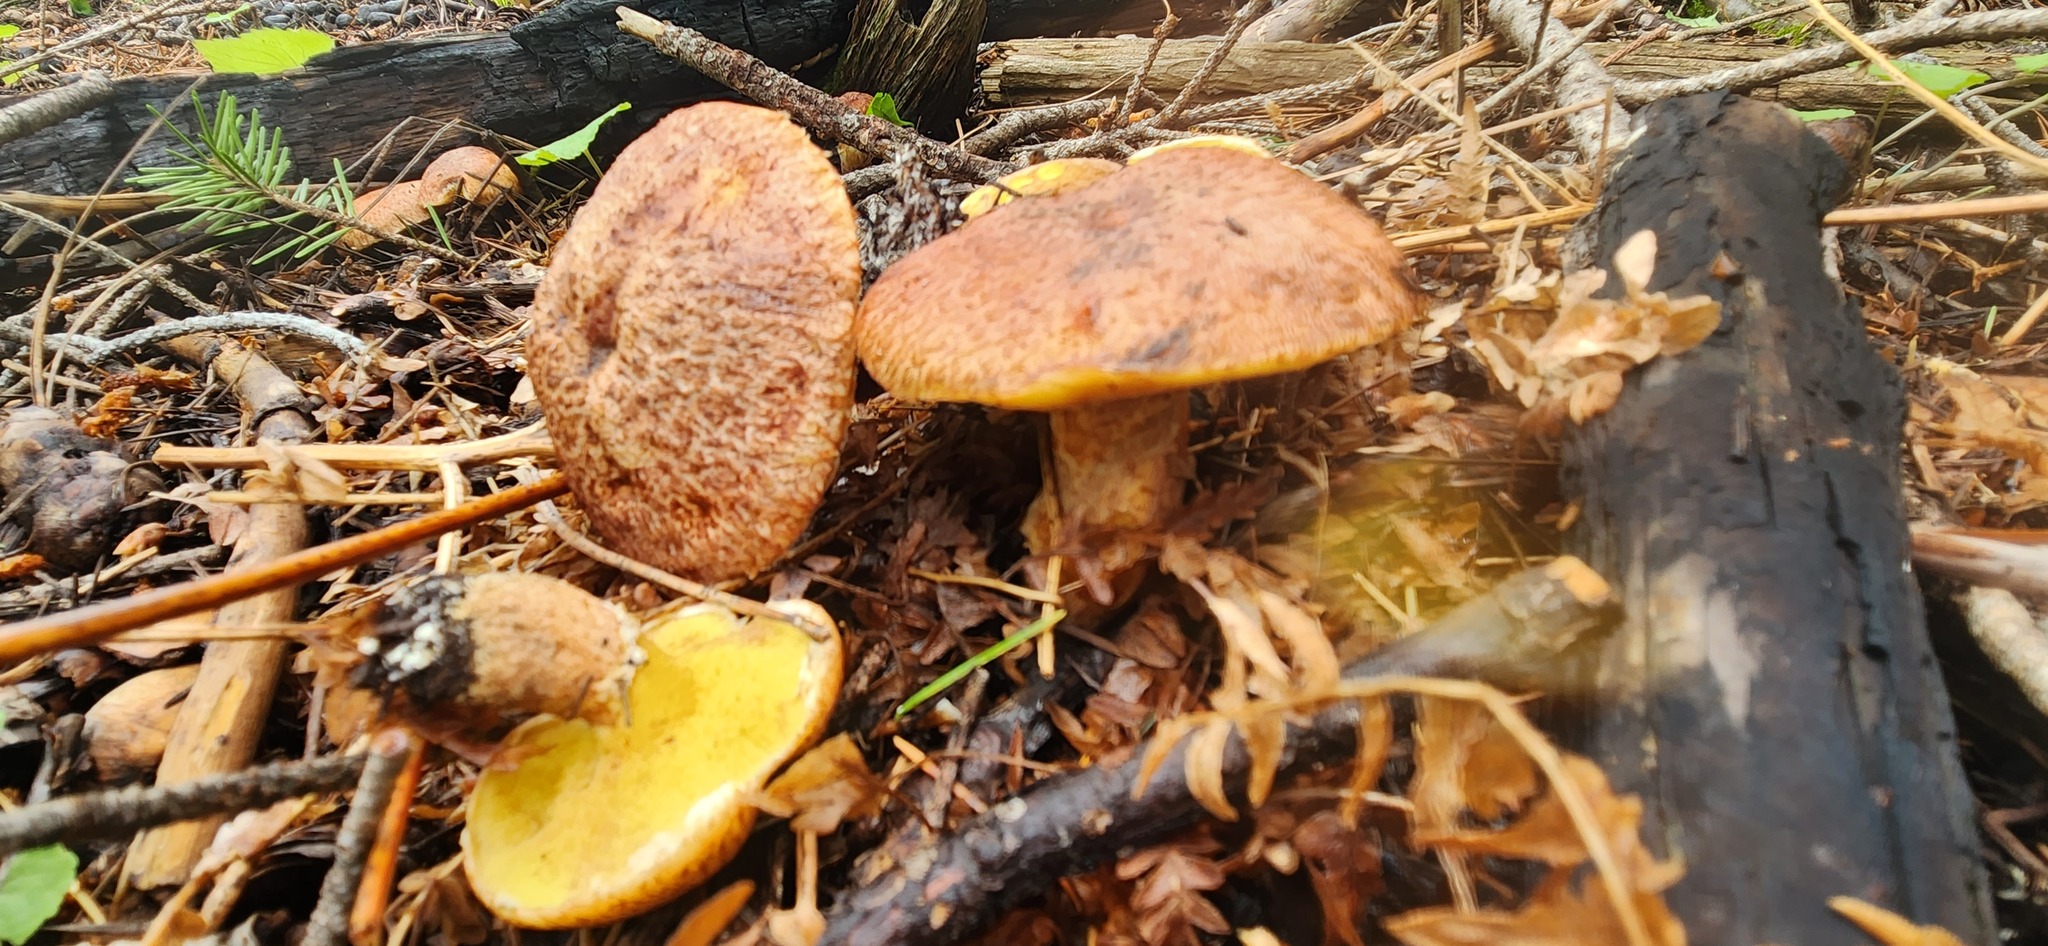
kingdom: Fungi
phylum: Basidiomycota
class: Agaricomycetes
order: Boletales
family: Suillaceae
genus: Suillus
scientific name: Suillus lakei
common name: Western painted suillus
